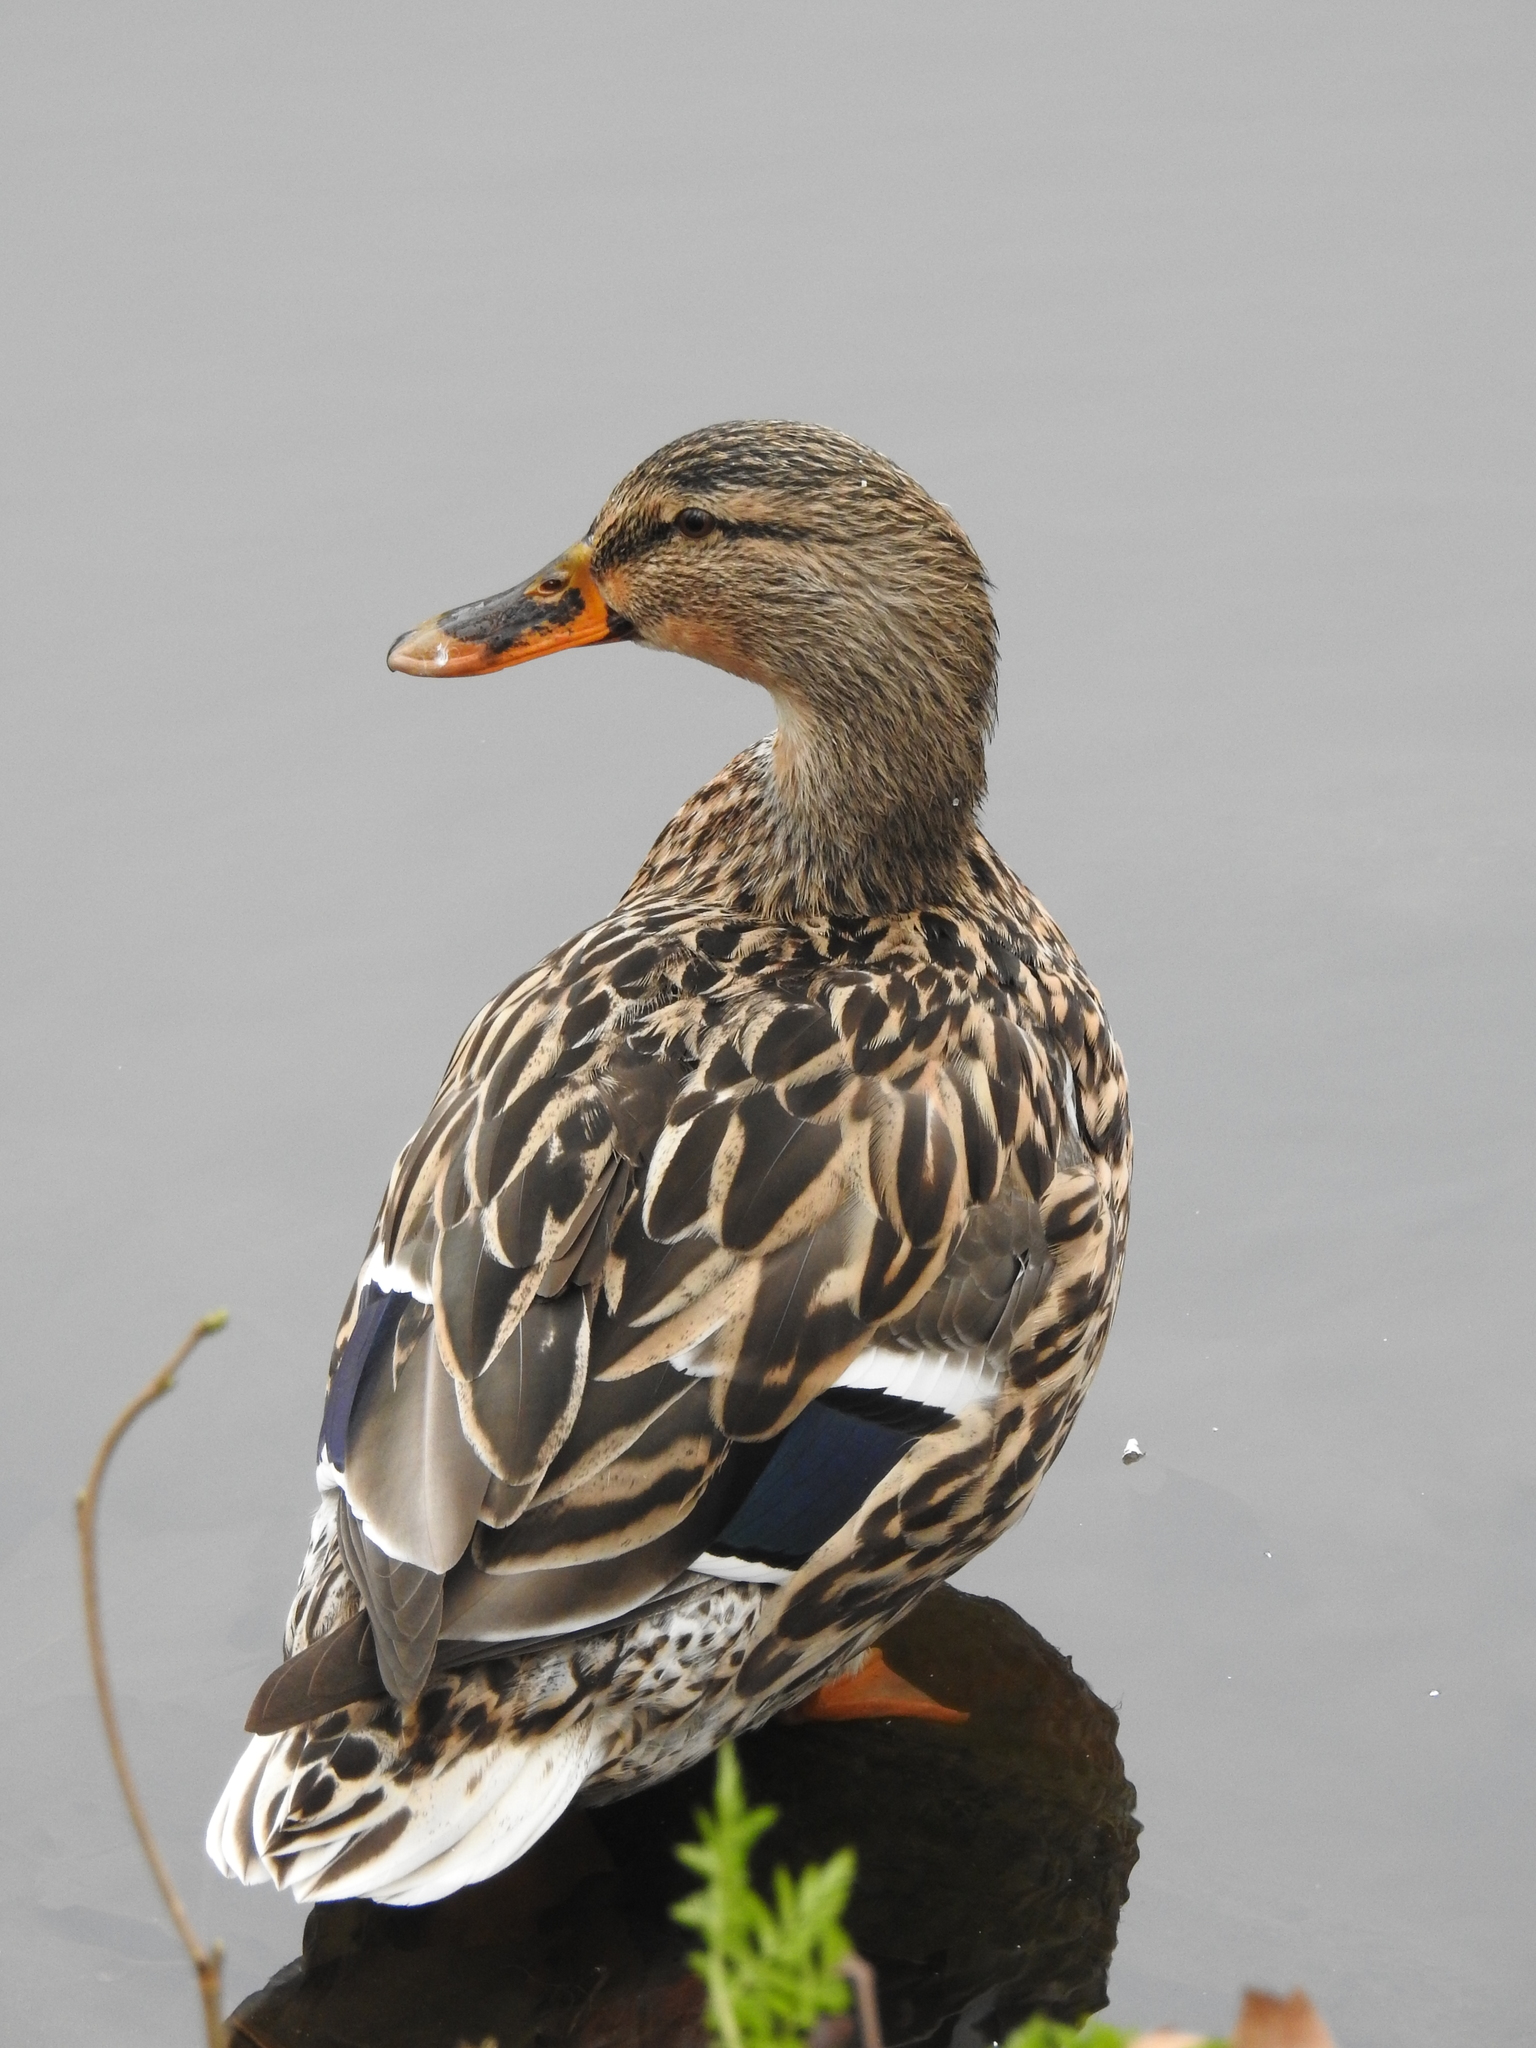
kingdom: Animalia
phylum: Chordata
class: Aves
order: Anseriformes
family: Anatidae
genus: Anas
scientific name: Anas platyrhynchos
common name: Mallard
